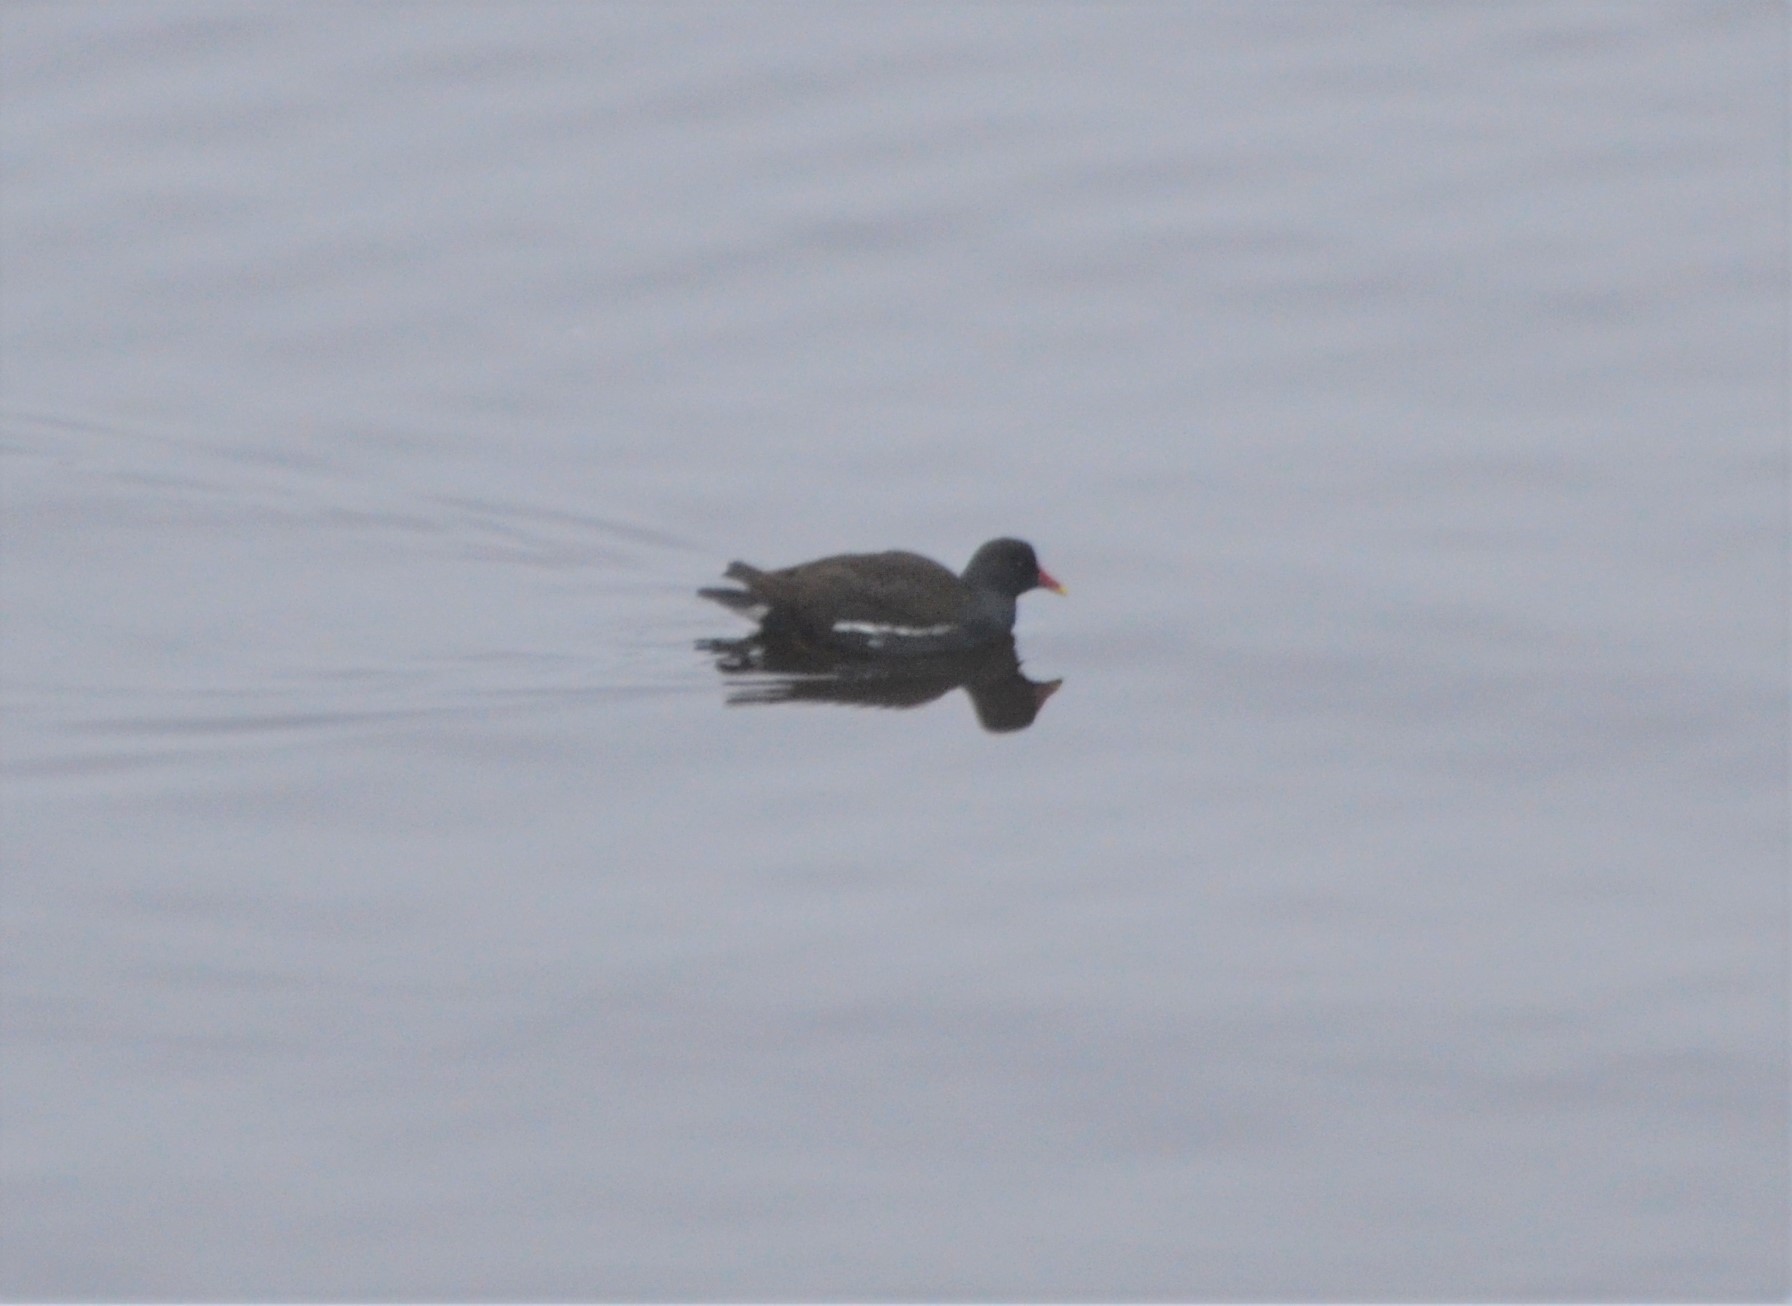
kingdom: Animalia
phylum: Chordata
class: Aves
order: Gruiformes
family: Rallidae
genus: Gallinula
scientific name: Gallinula chloropus
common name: Common moorhen
